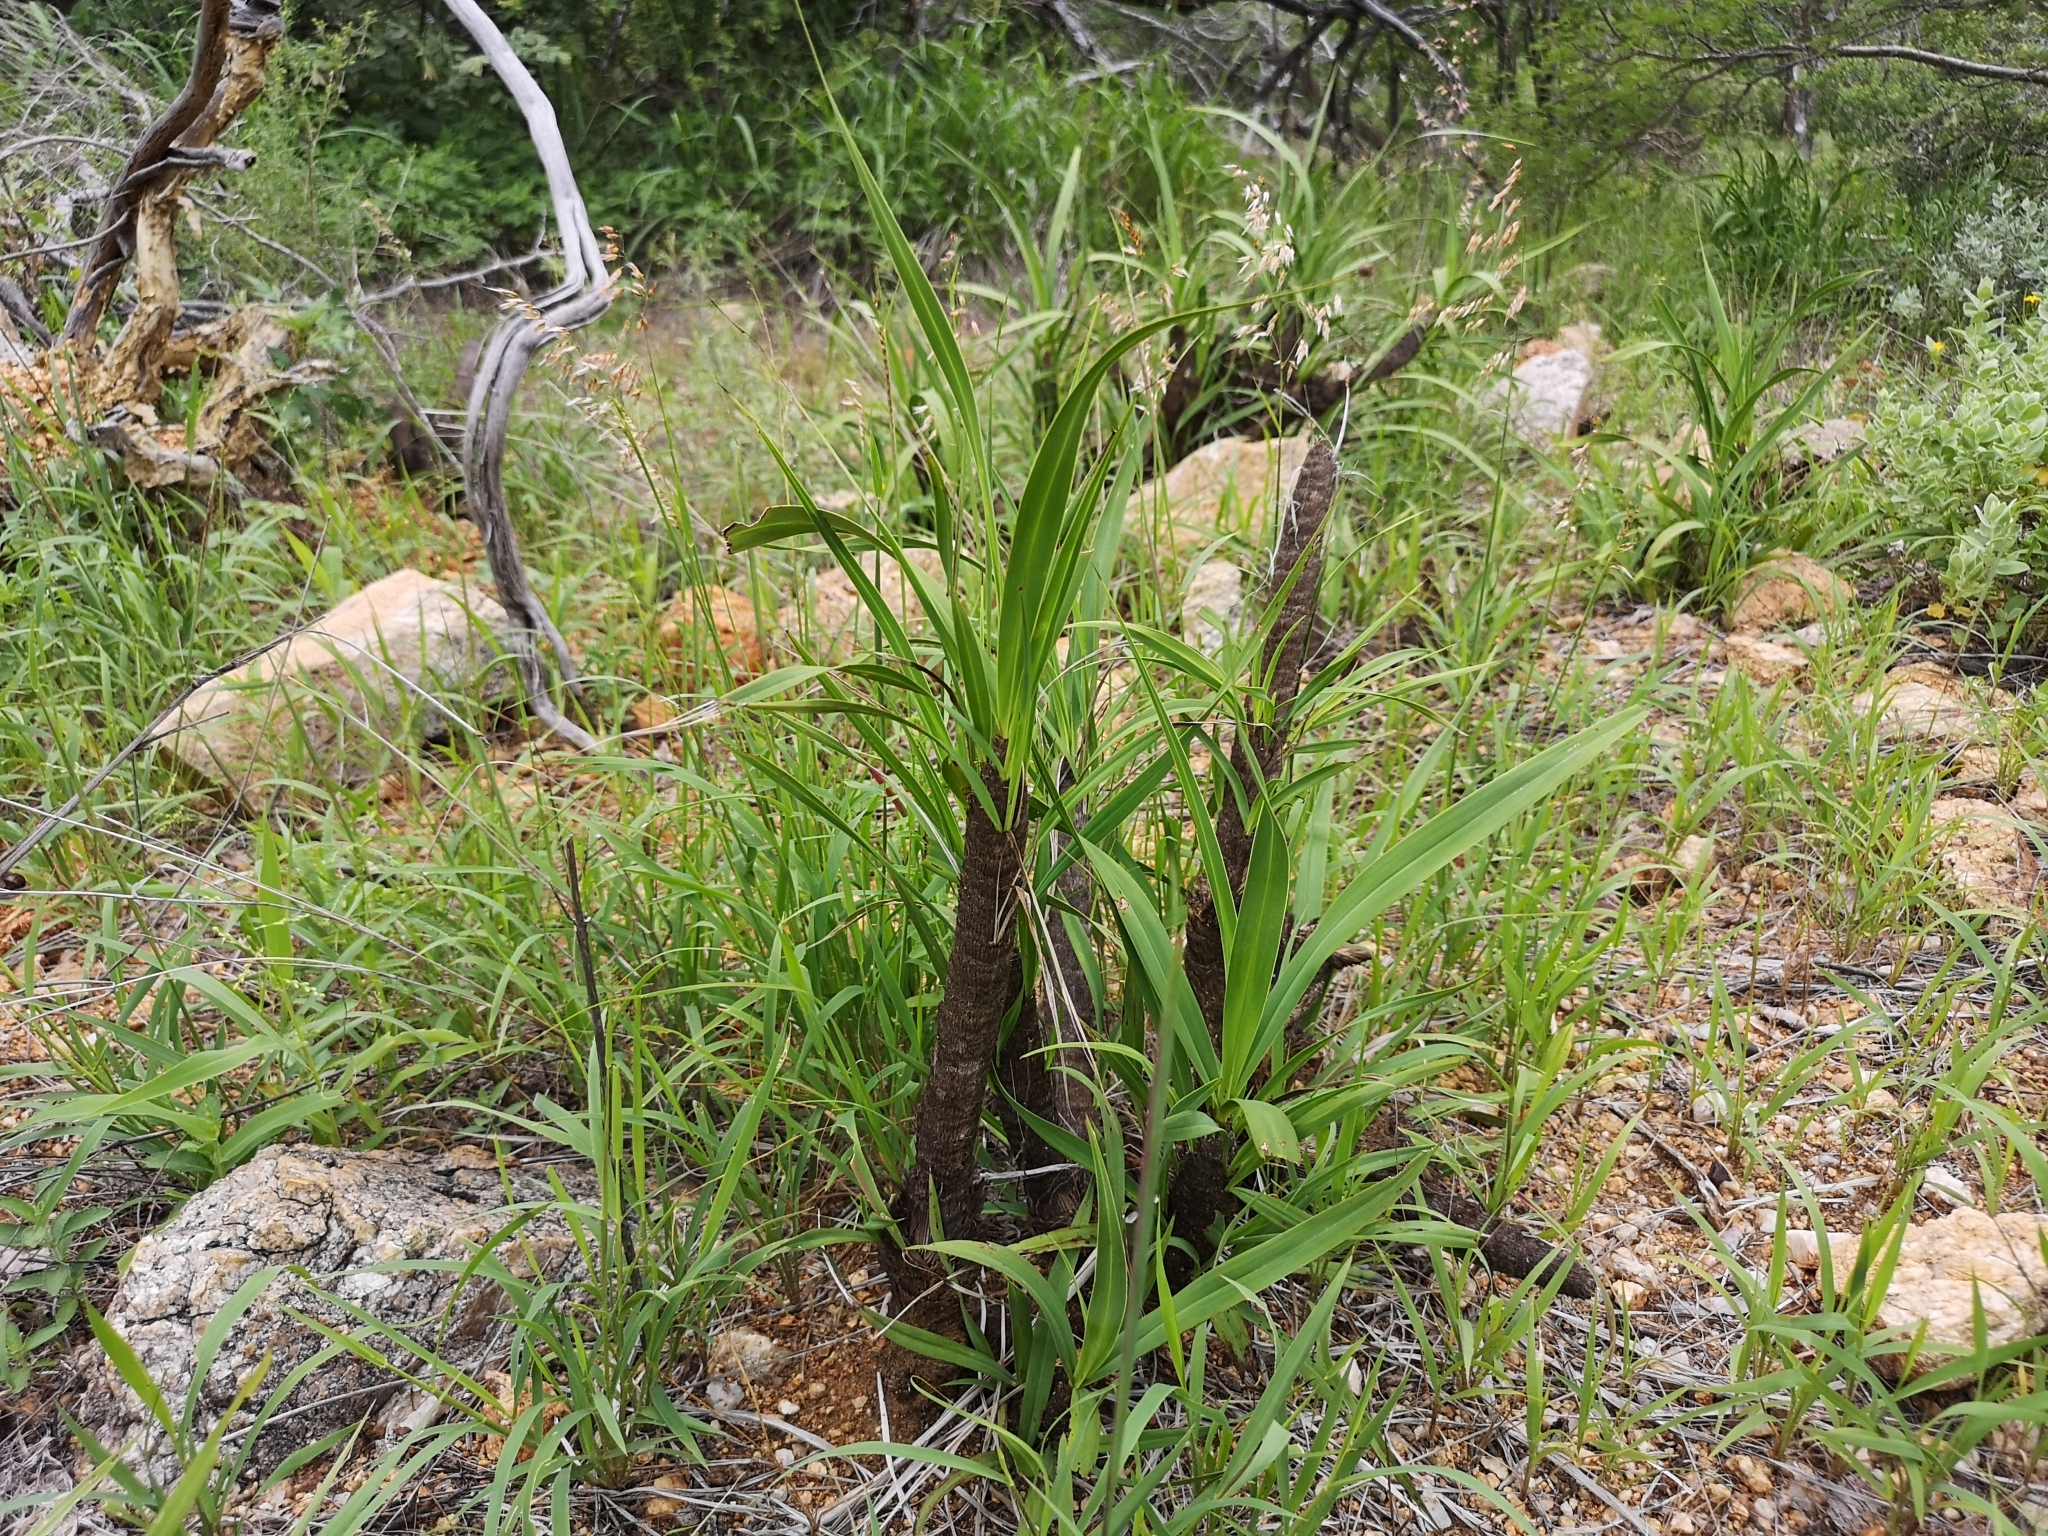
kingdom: Plantae
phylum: Tracheophyta
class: Liliopsida
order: Pandanales
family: Velloziaceae
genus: Xerophyta
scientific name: Xerophyta retinervis
